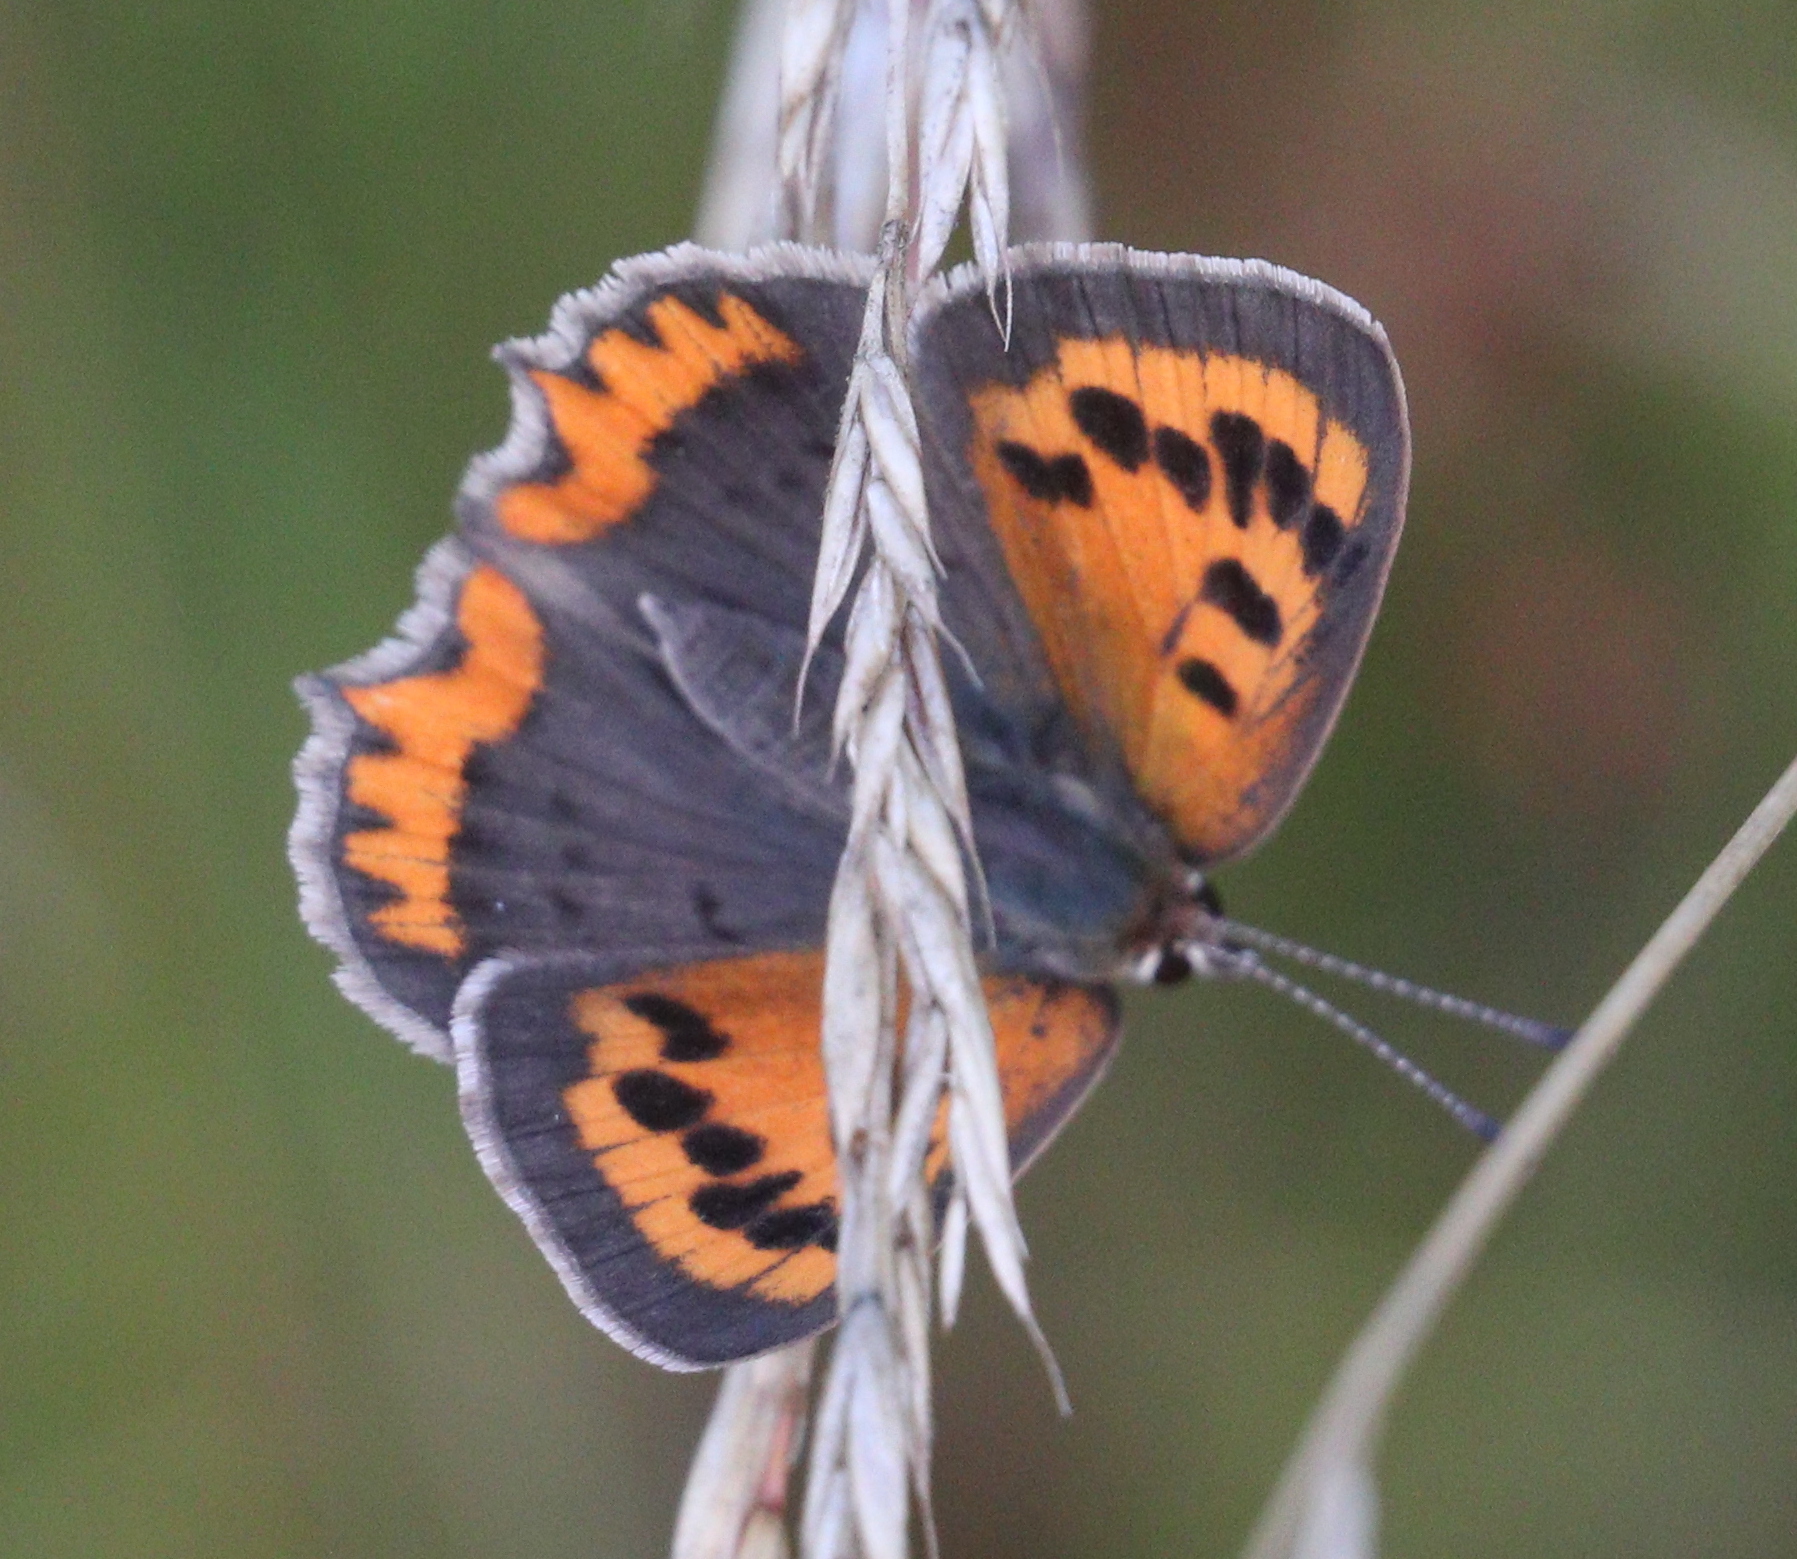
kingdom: Animalia
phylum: Arthropoda
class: Insecta
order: Lepidoptera
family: Lycaenidae
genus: Lycaena
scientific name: Lycaena phlaeas
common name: Small copper
